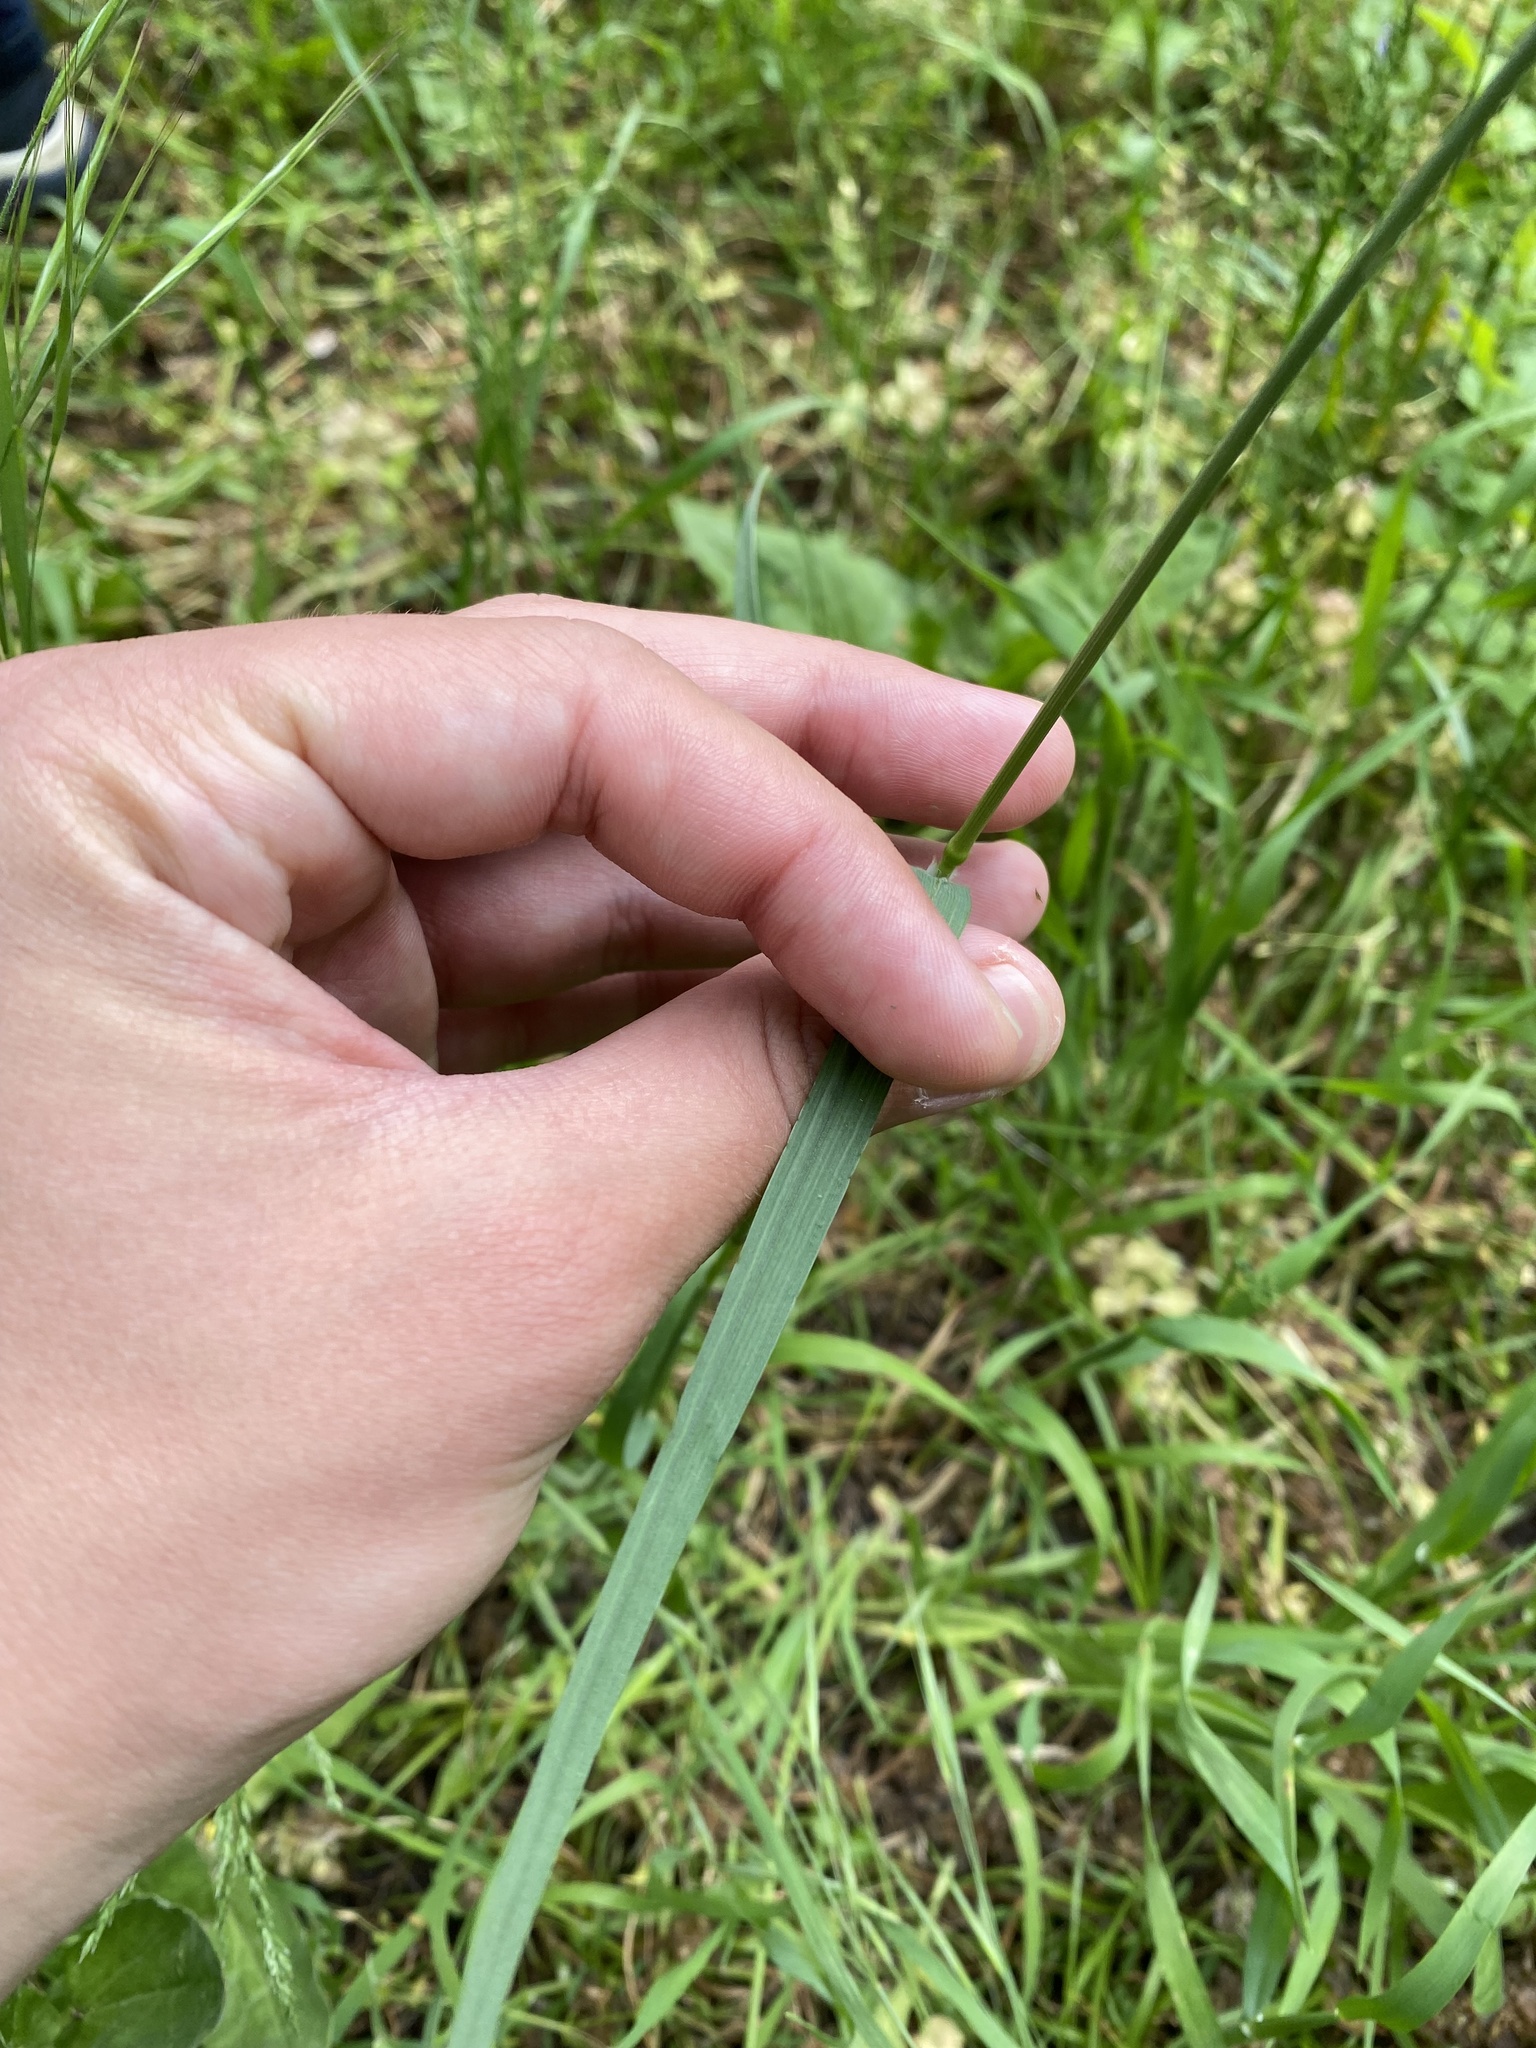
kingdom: Plantae
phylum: Tracheophyta
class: Liliopsida
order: Poales
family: Poaceae
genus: Bromus
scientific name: Bromus
